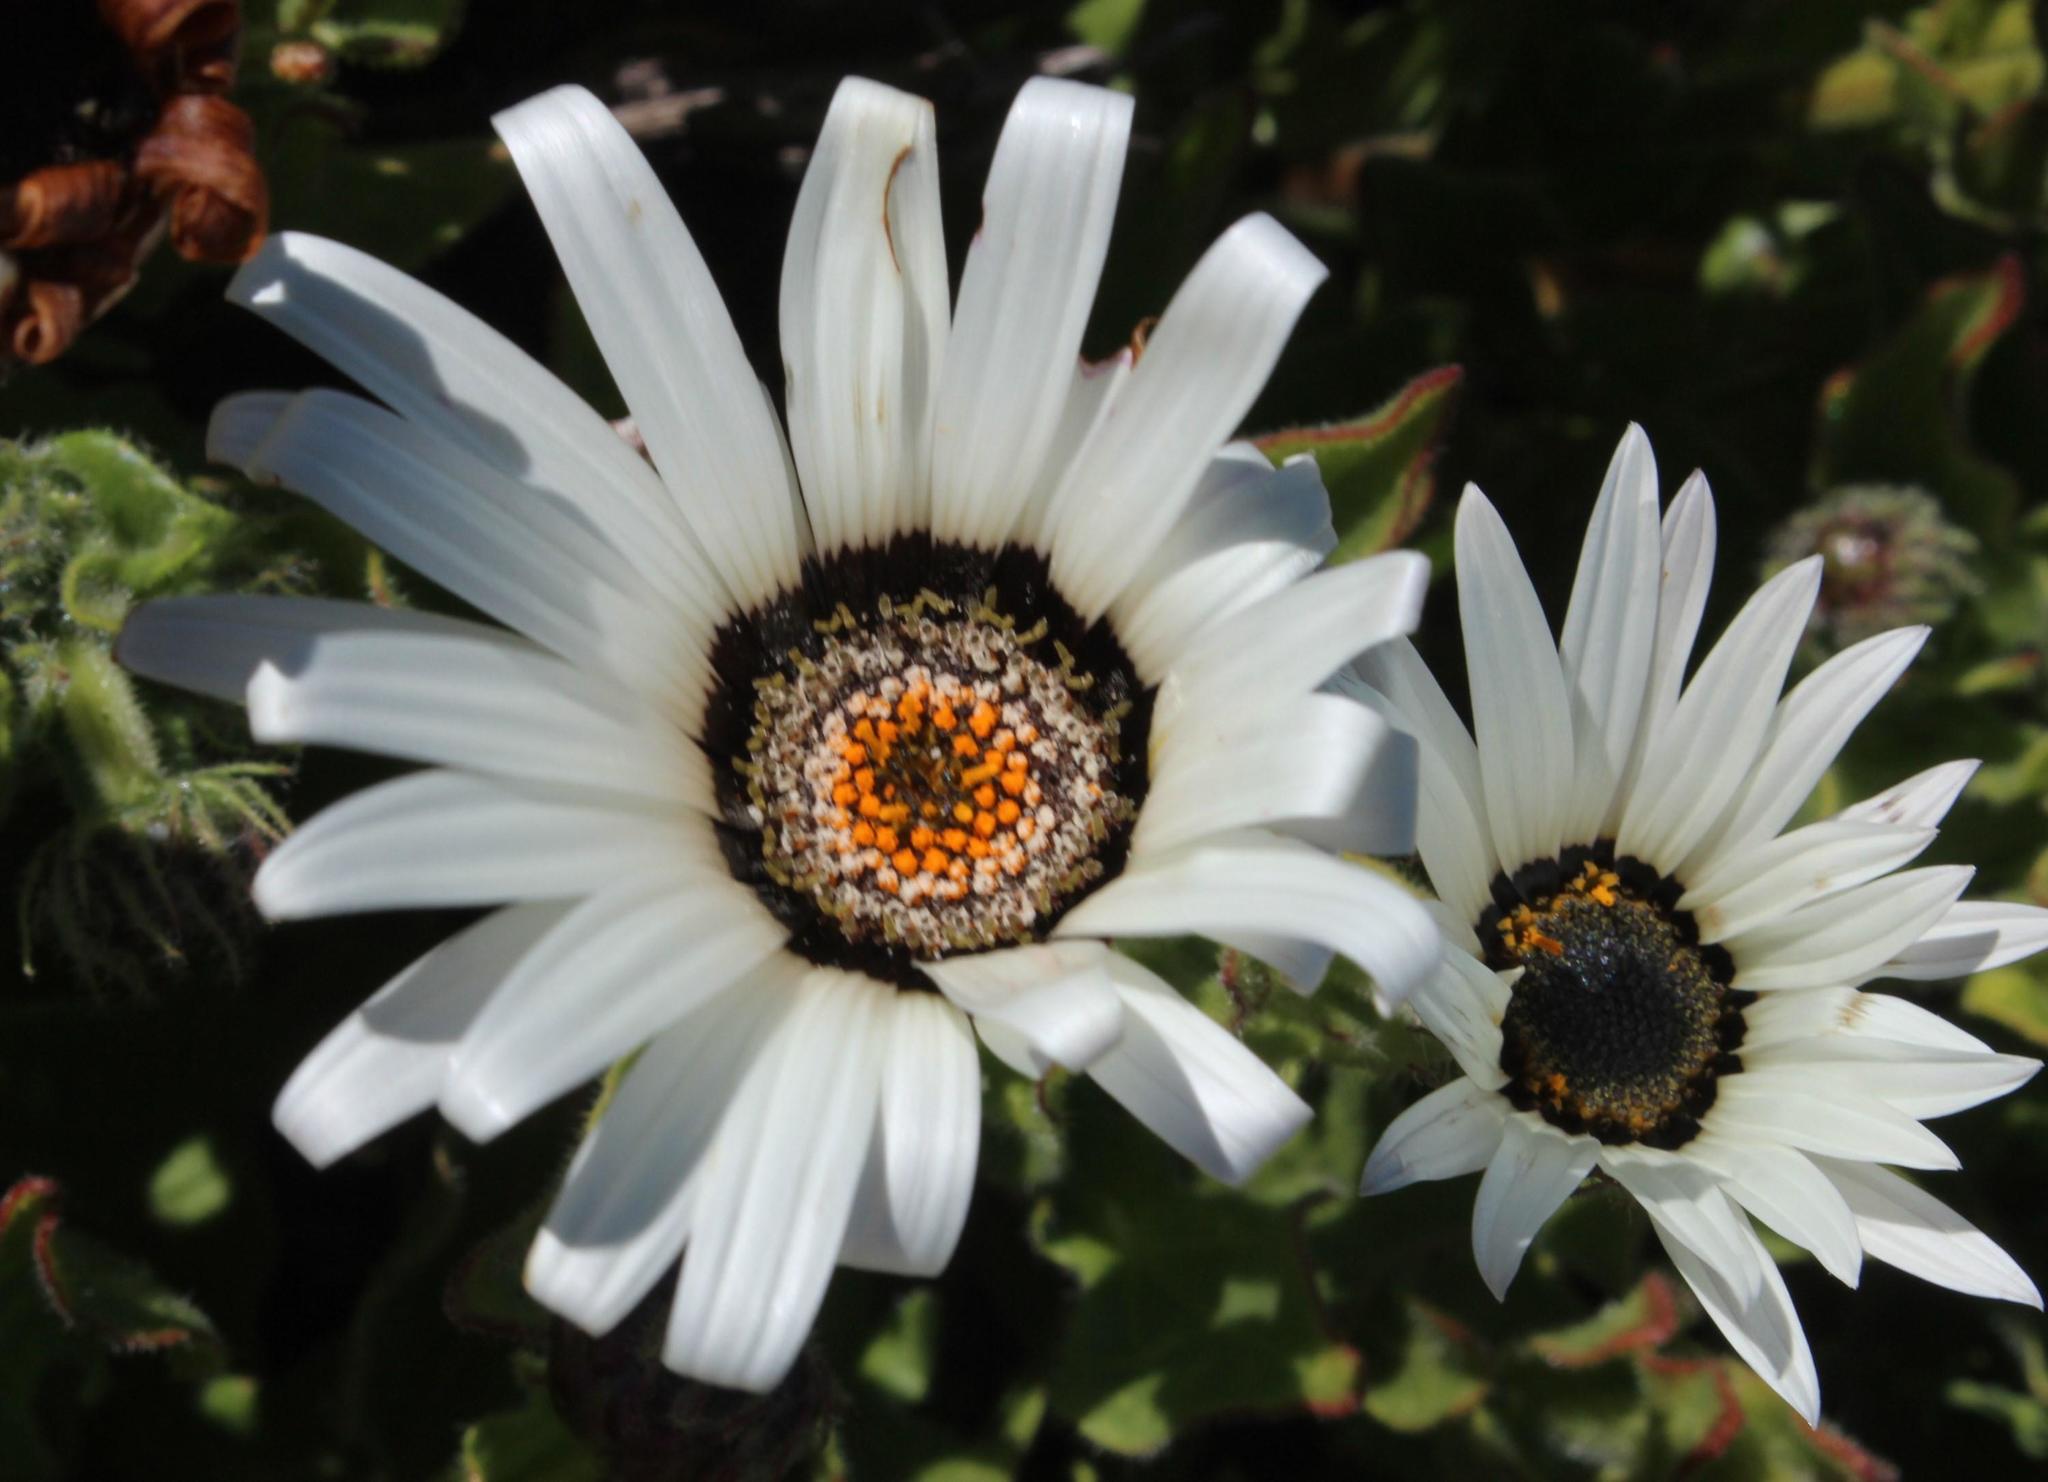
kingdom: Plantae
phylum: Tracheophyta
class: Magnoliopsida
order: Asterales
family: Asteraceae
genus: Arctotis
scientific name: Arctotis decurrens
